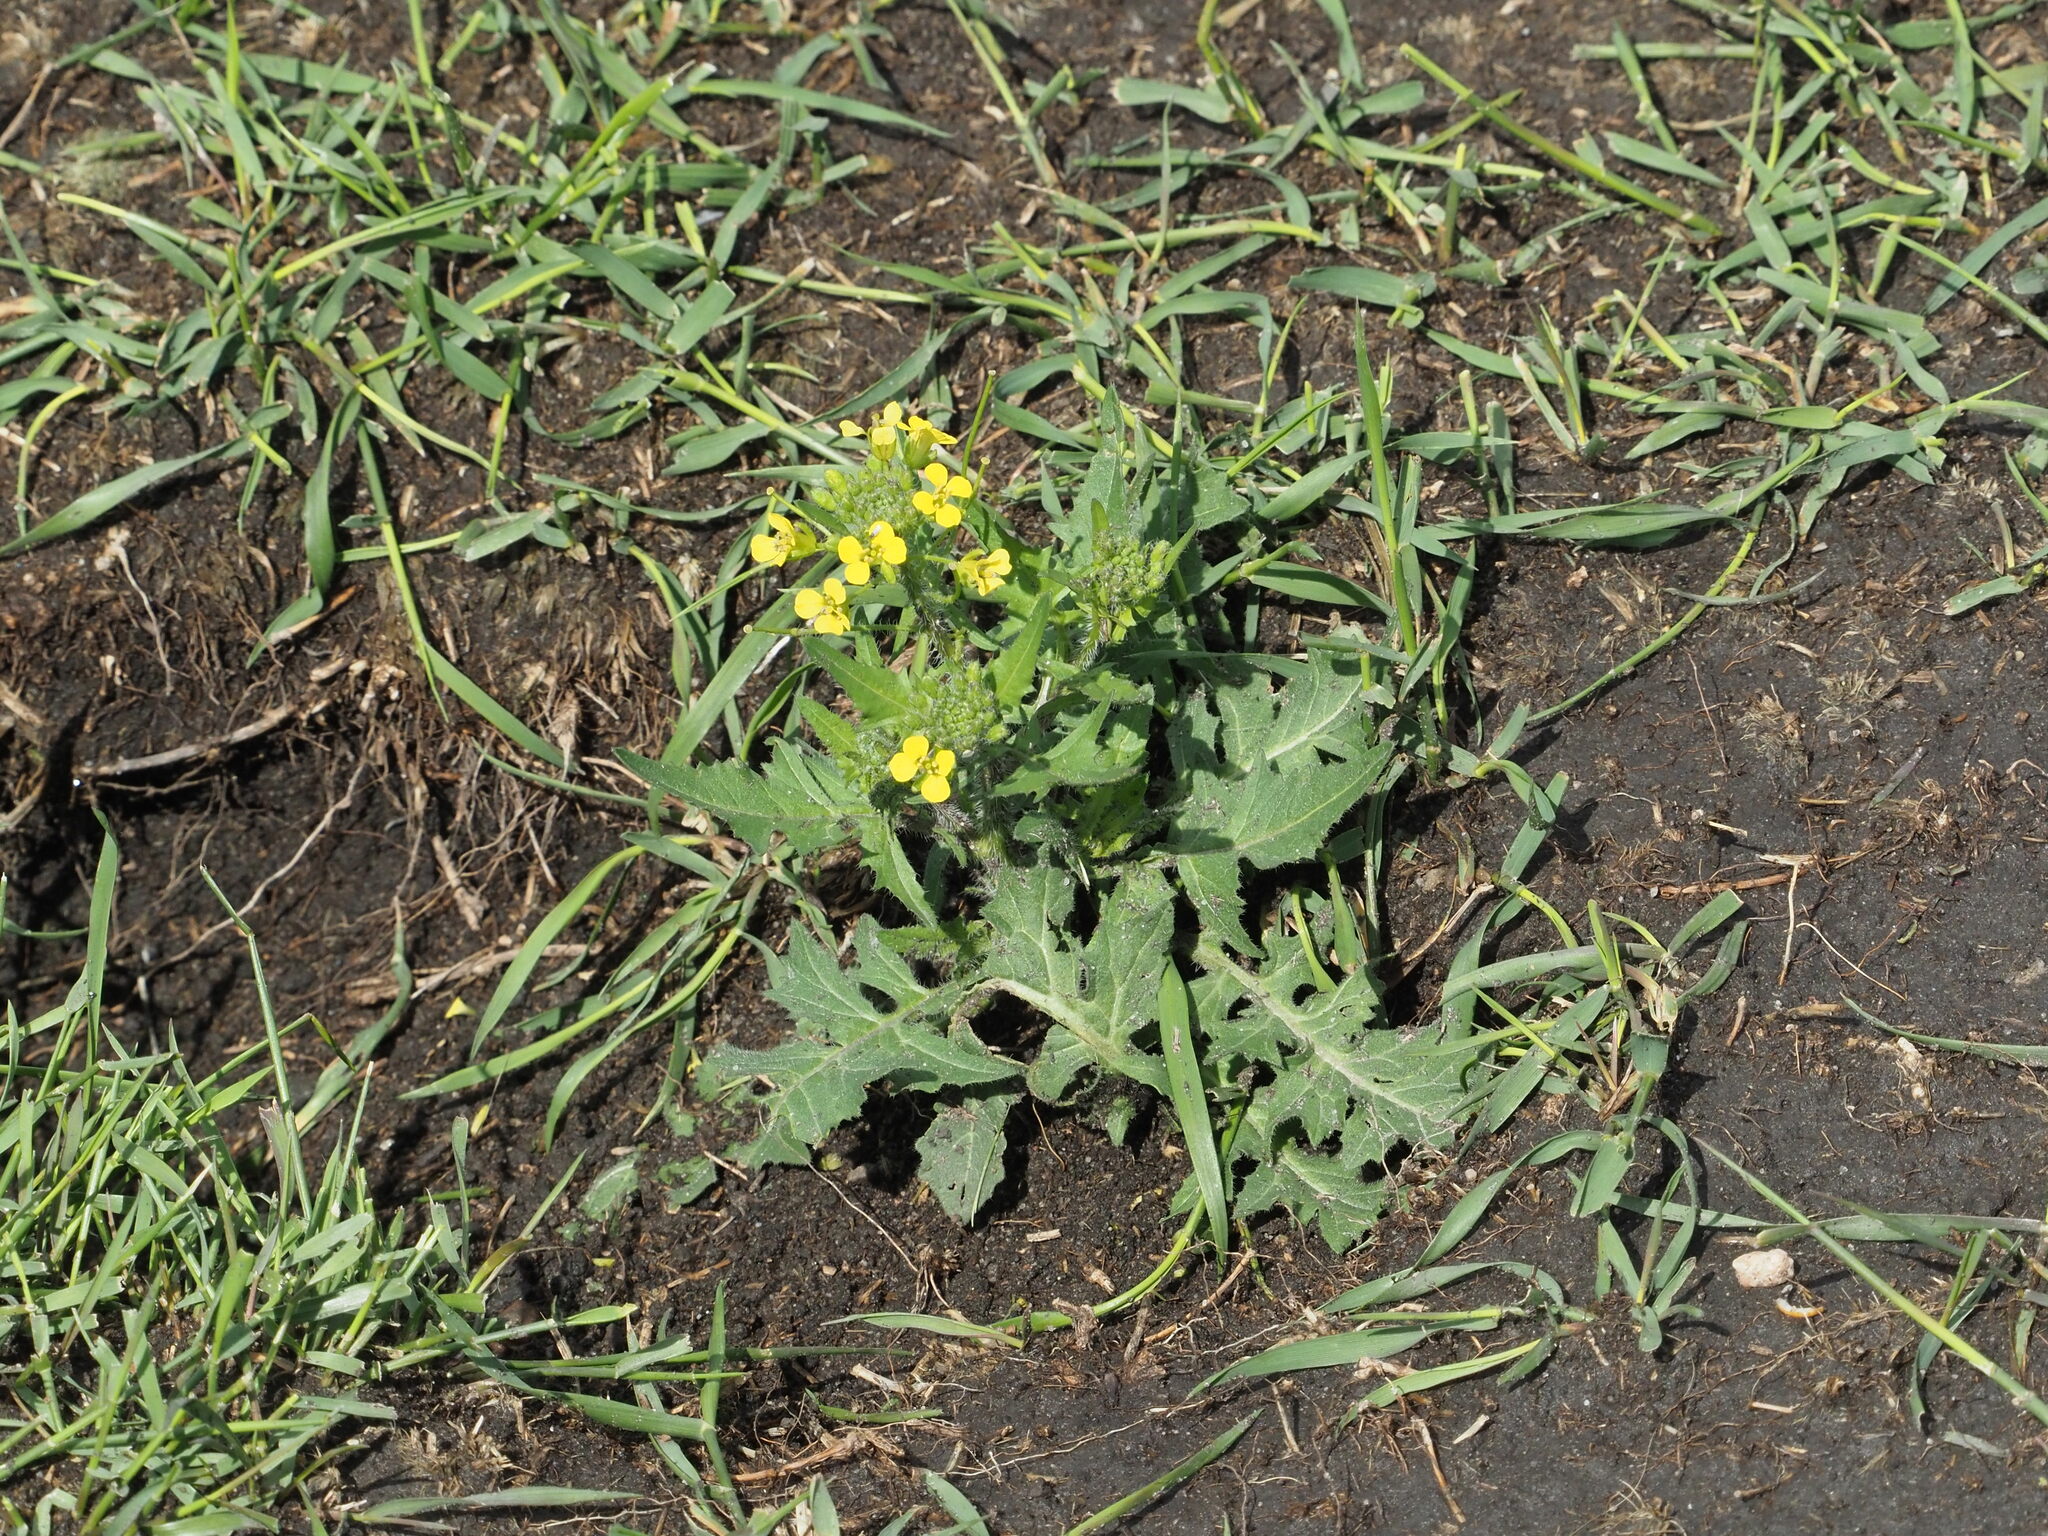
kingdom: Plantae
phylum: Tracheophyta
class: Magnoliopsida
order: Brassicales
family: Brassicaceae
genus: Sisymbrium
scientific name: Sisymbrium loeselii
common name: False london-rocket
